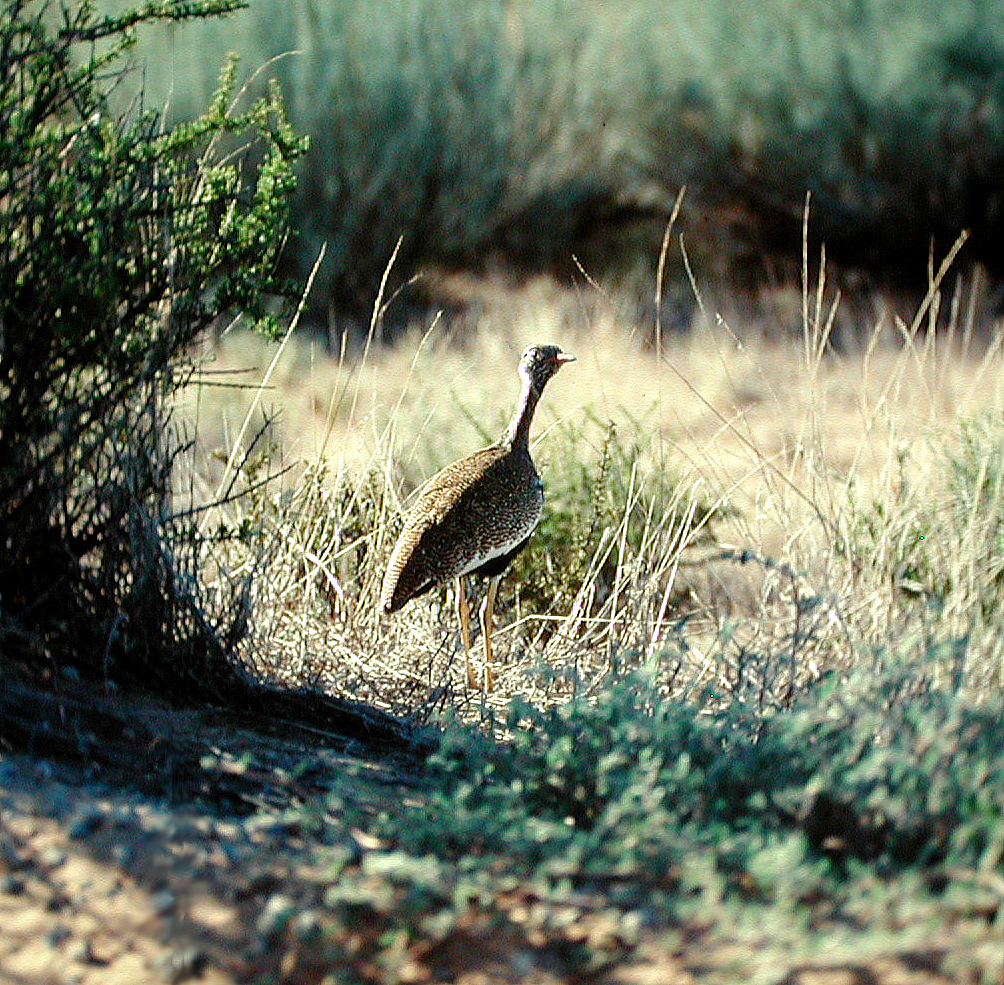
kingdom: Animalia
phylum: Chordata
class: Aves
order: Otidiformes
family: Otididae
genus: Afrotis
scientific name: Afrotis afraoides
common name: Northern black korhaan
